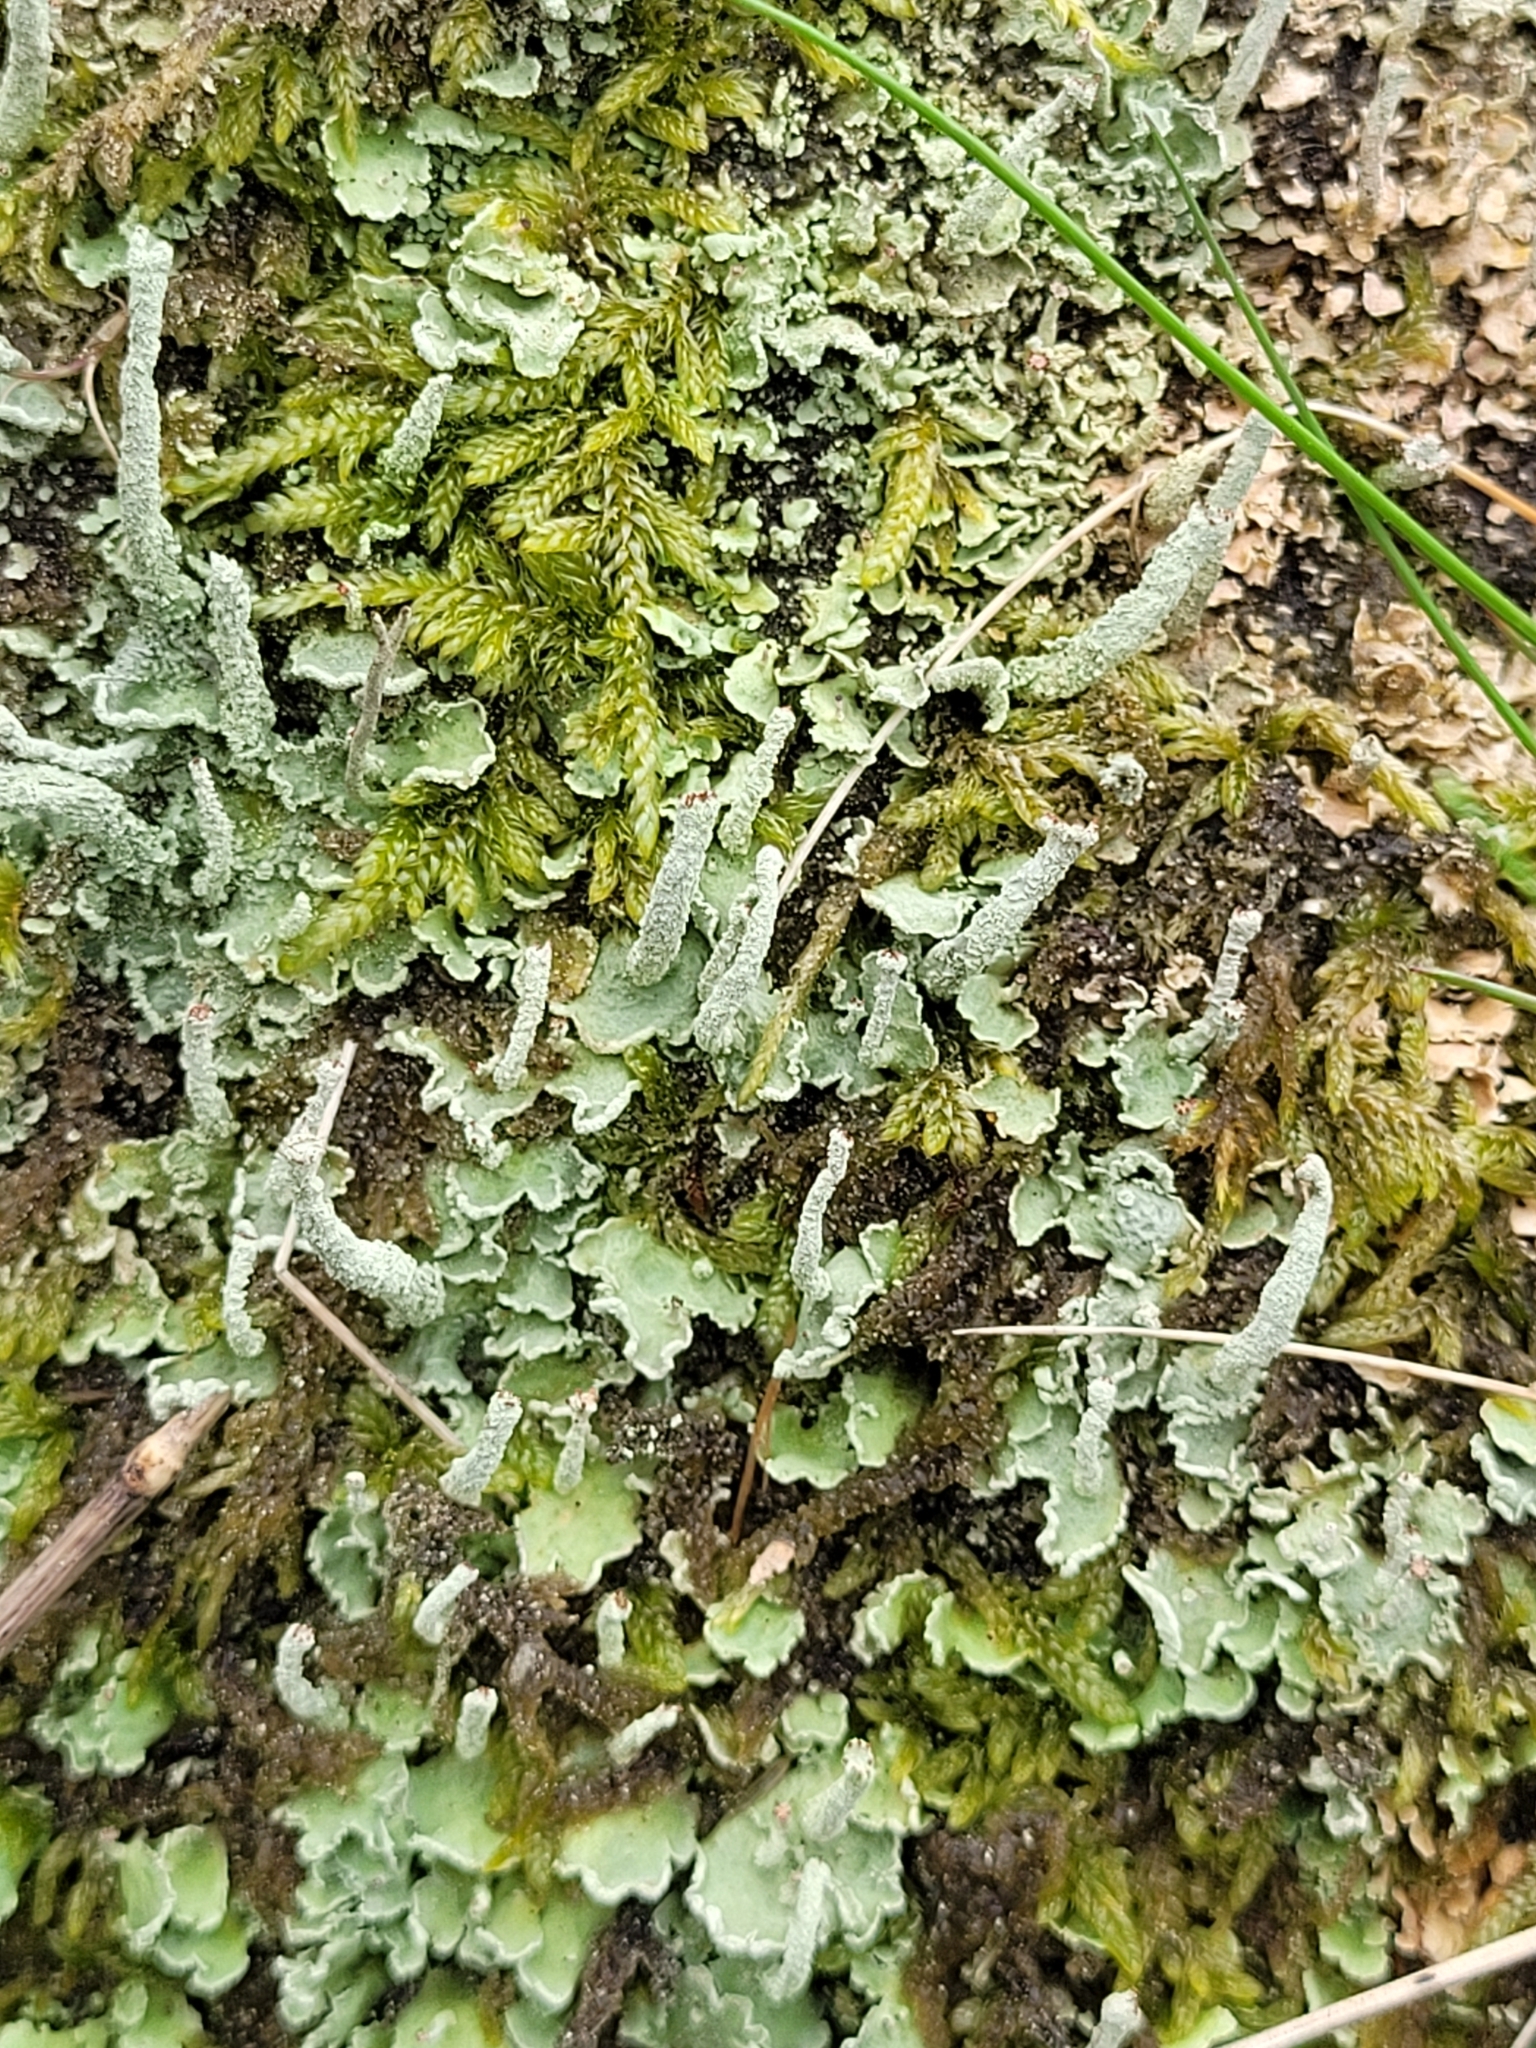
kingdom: Fungi
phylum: Ascomycota
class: Lecanoromycetes
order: Lecanorales
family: Cladoniaceae
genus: Cladonia
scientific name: Cladonia digitata
